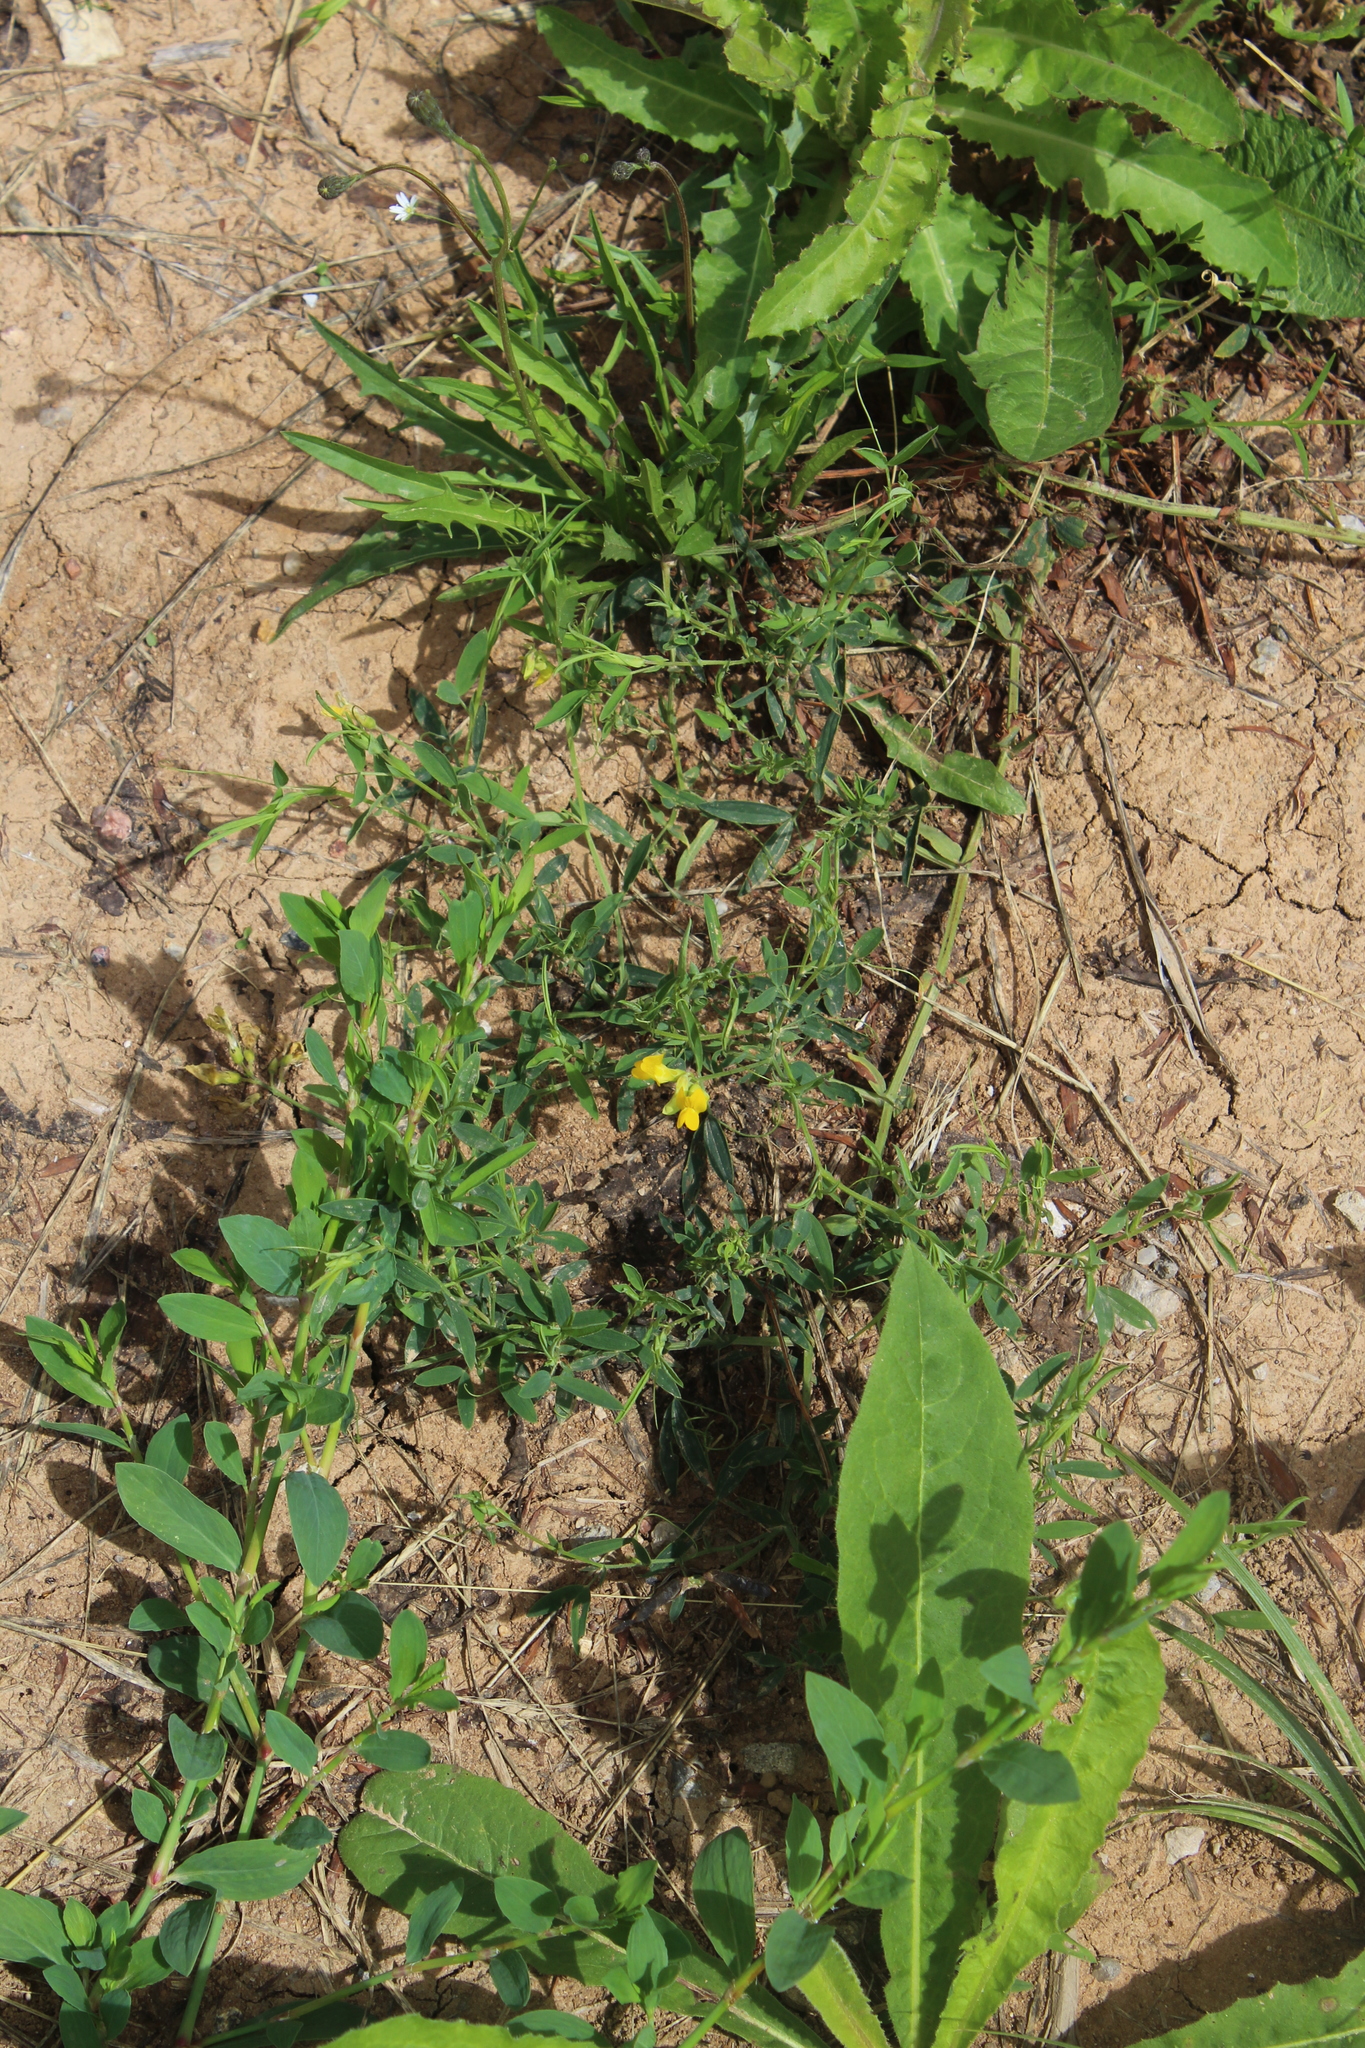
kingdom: Plantae
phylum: Tracheophyta
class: Magnoliopsida
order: Fabales
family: Fabaceae
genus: Lathyrus
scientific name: Lathyrus pratensis
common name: Meadow vetchling
